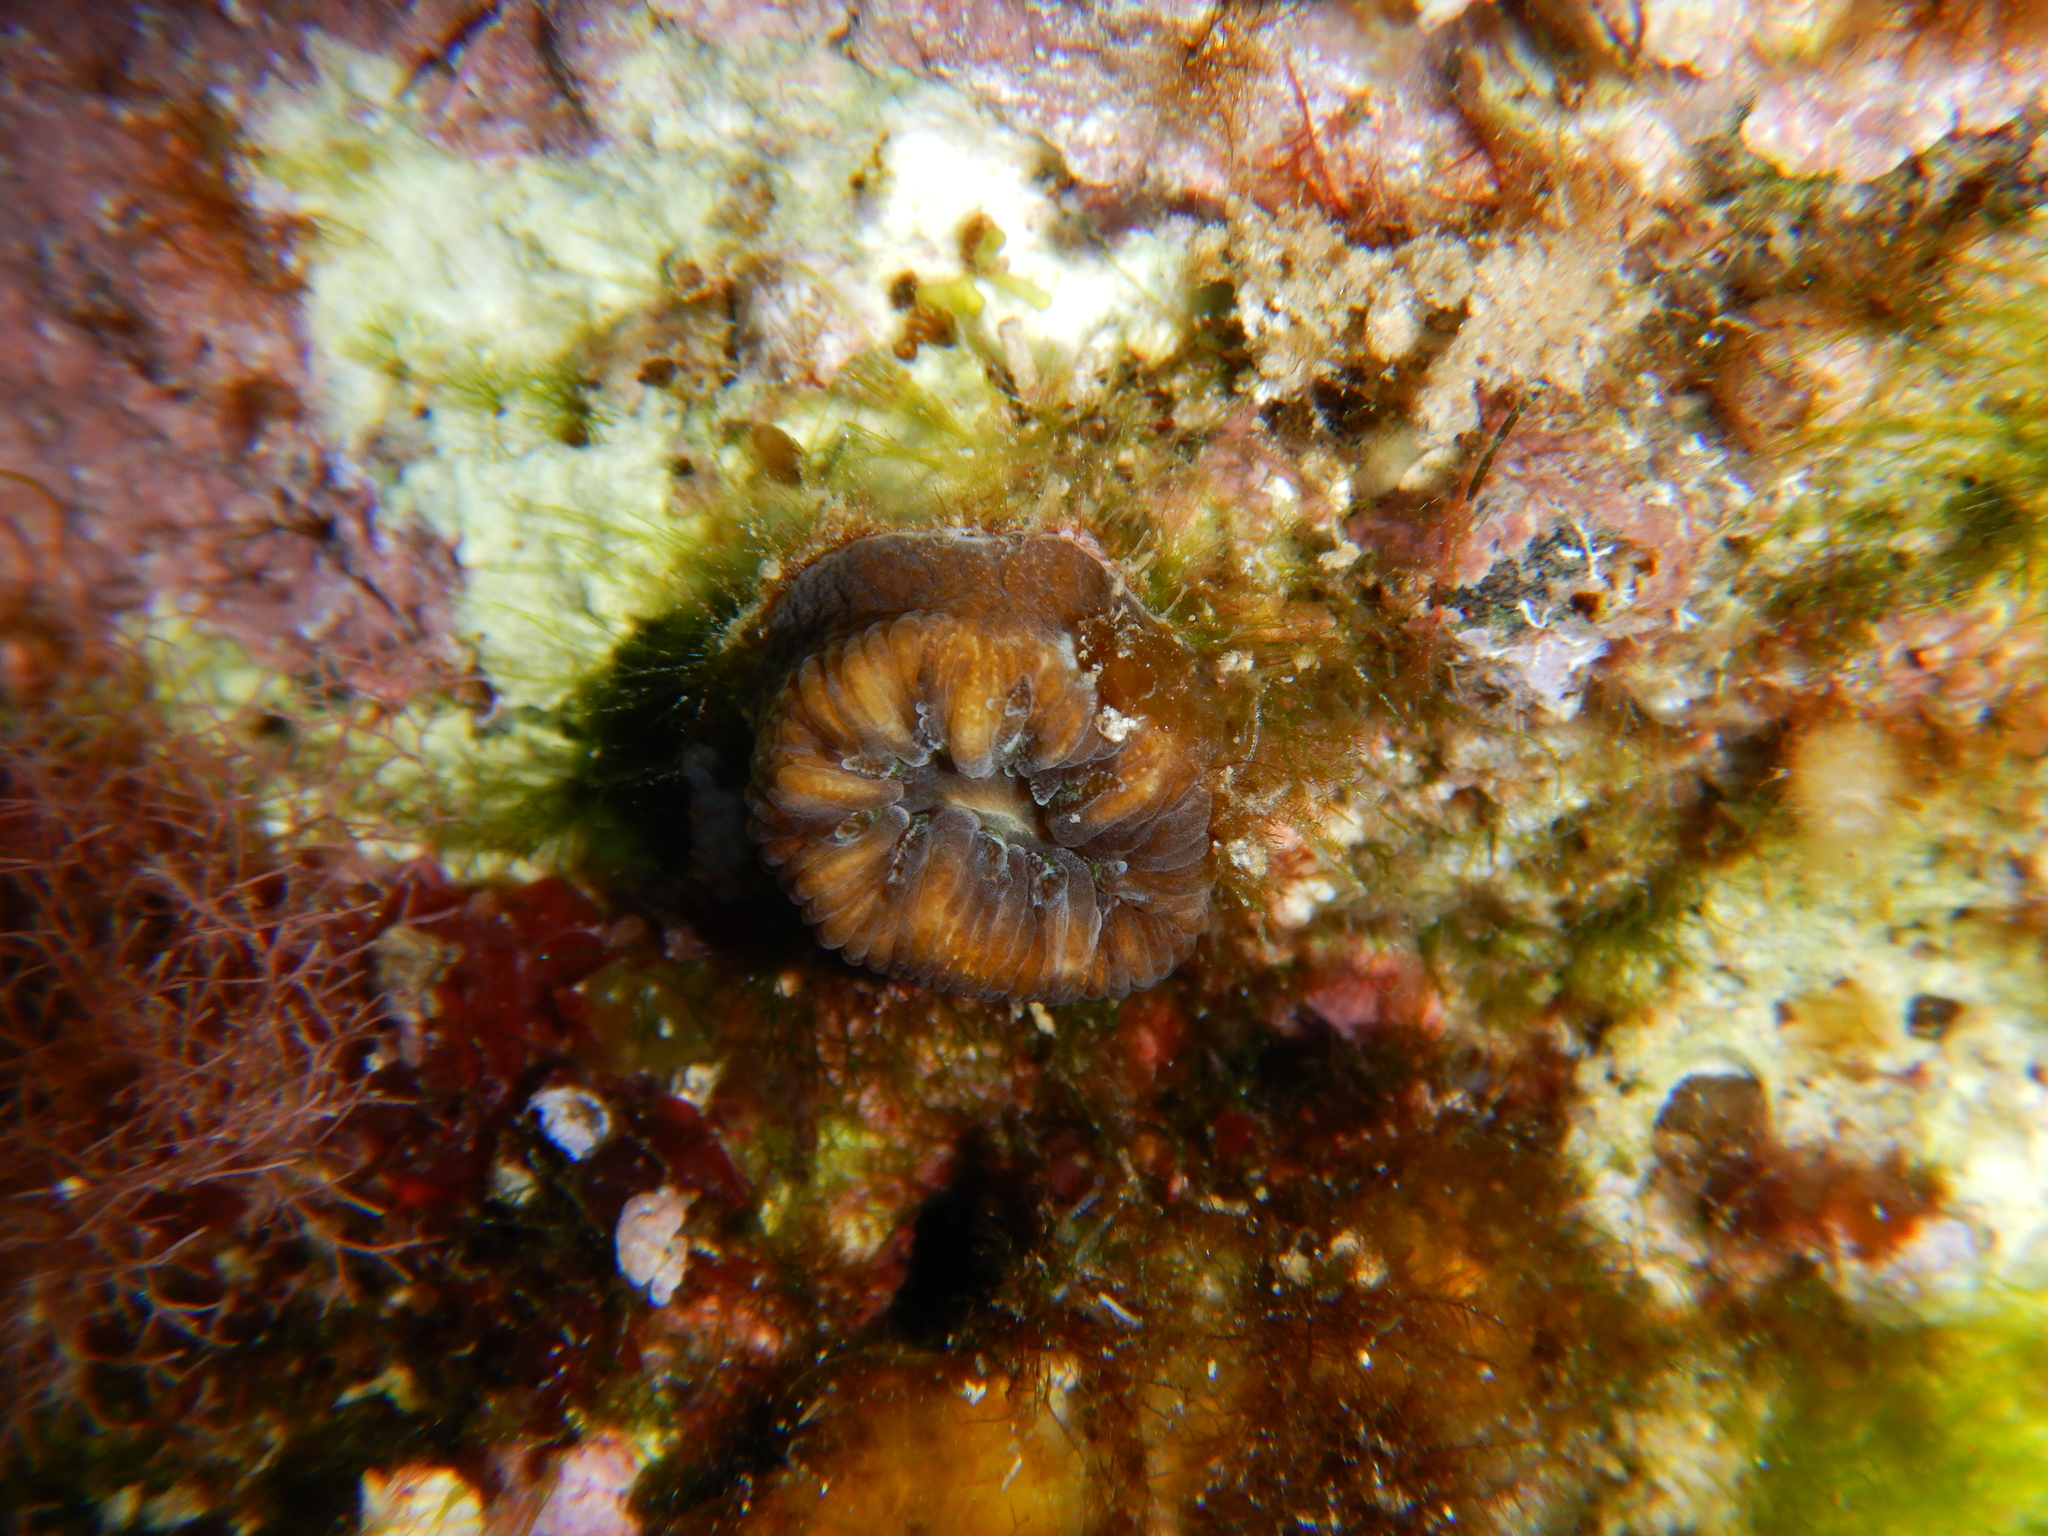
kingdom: Animalia
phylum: Cnidaria
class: Anthozoa
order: Scleractinia
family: Dendrophylliidae
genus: Balanophyllia
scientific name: Balanophyllia europaea
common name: Scarlet coral
